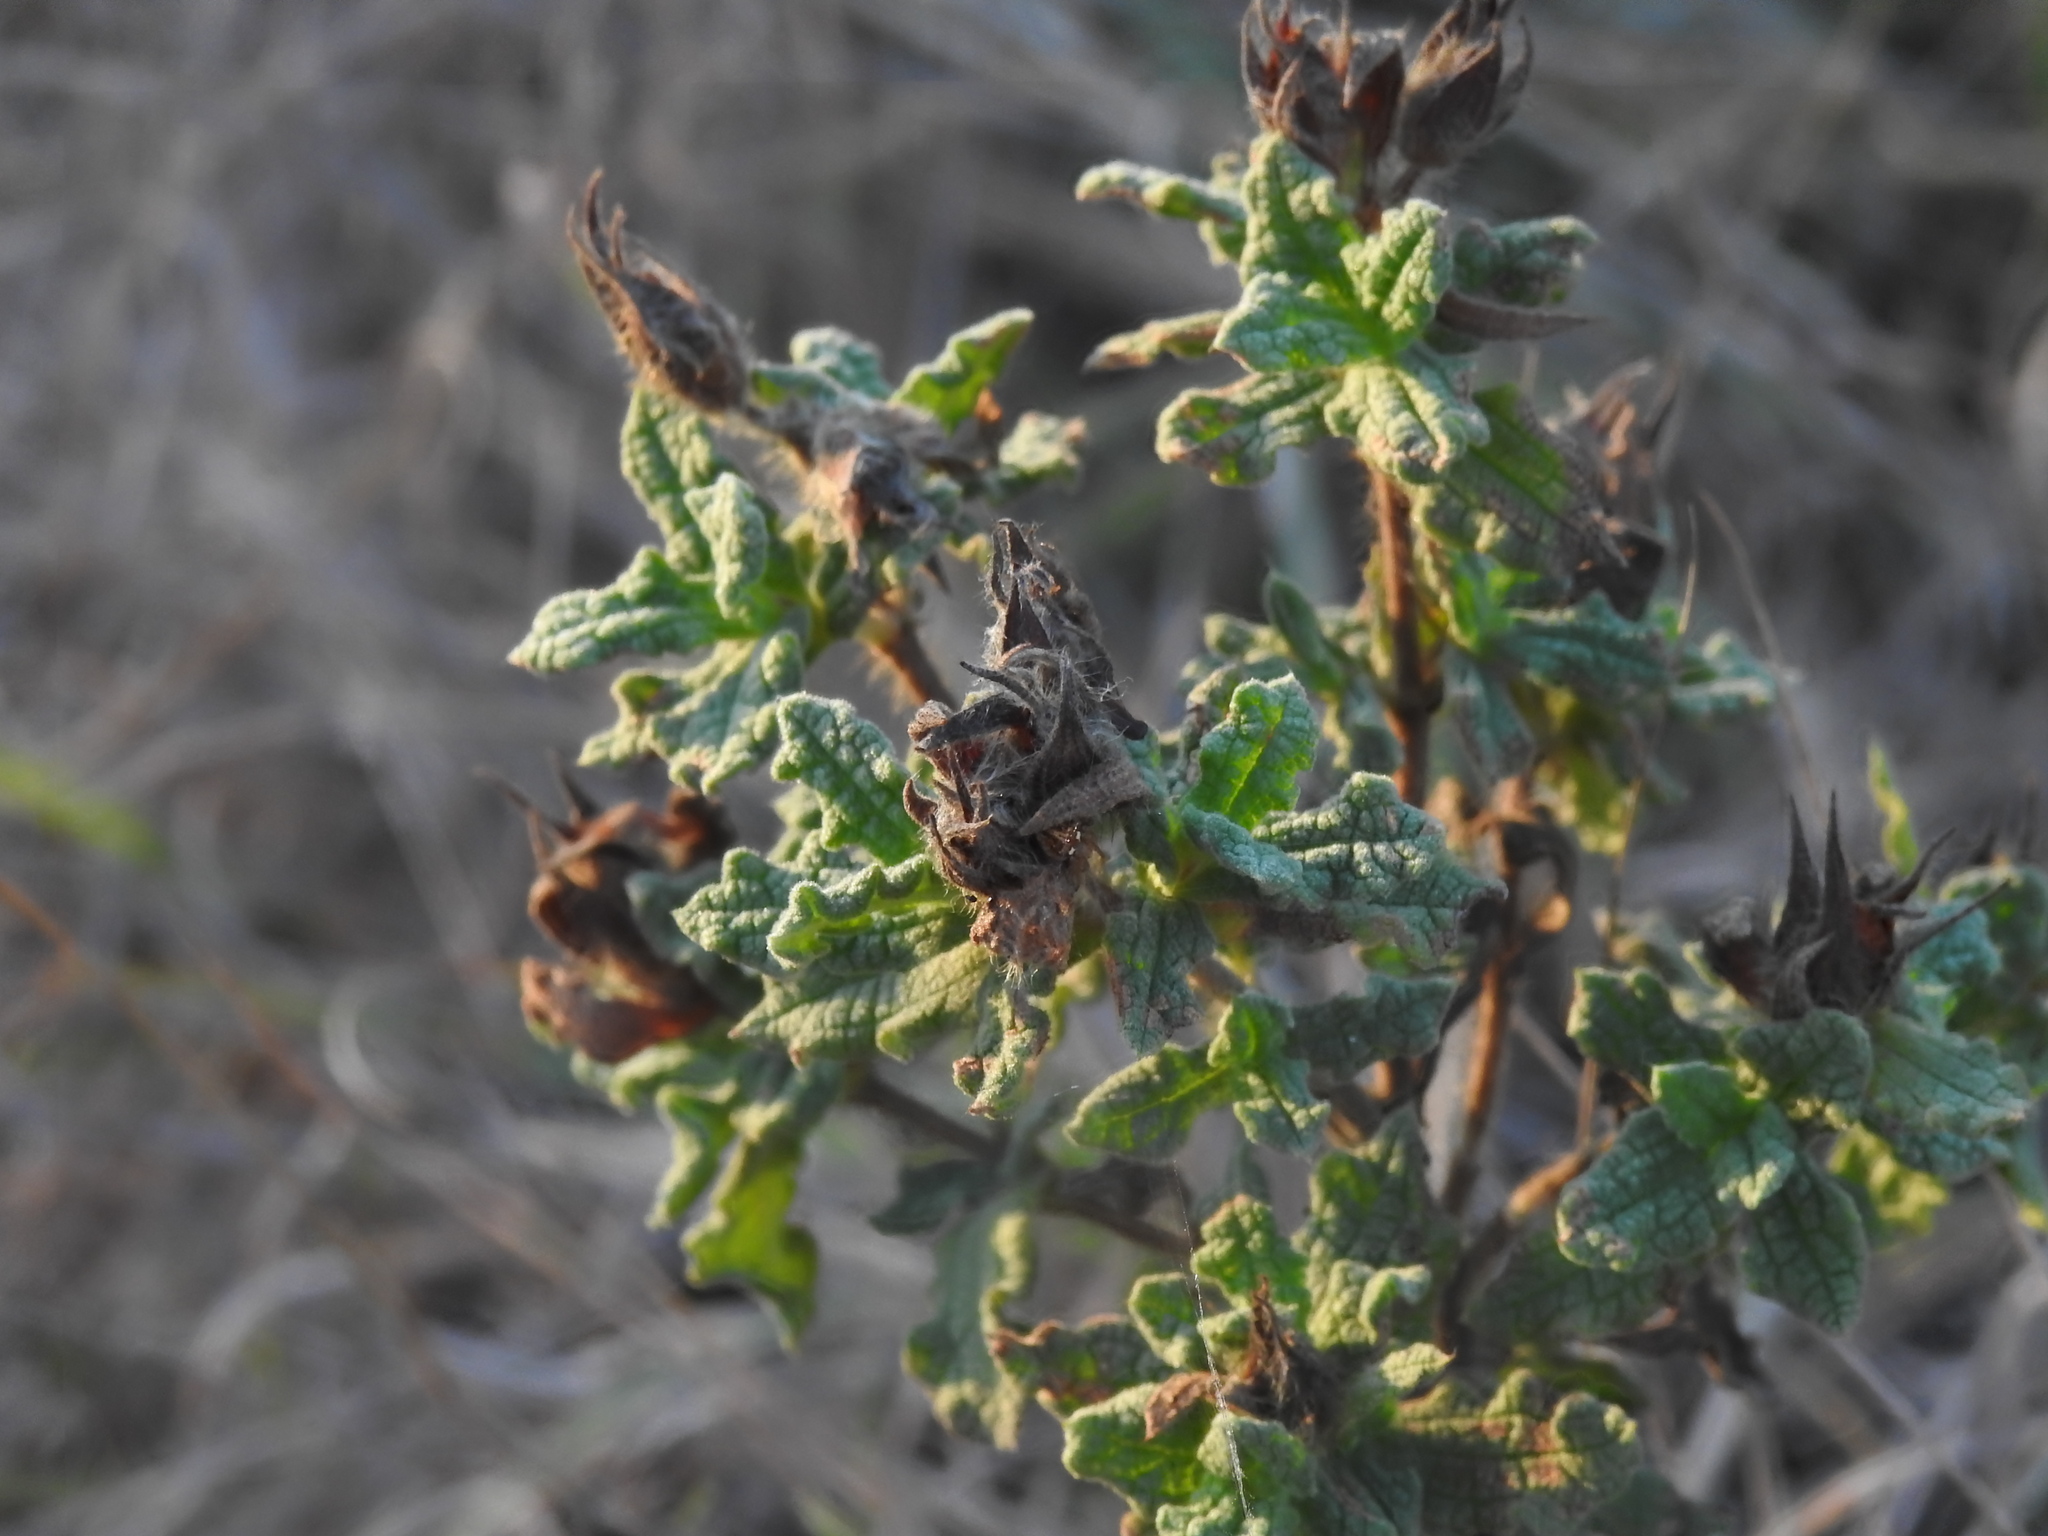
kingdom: Plantae
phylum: Tracheophyta
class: Magnoliopsida
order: Malvales
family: Cistaceae
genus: Cistus
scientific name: Cistus crispus
